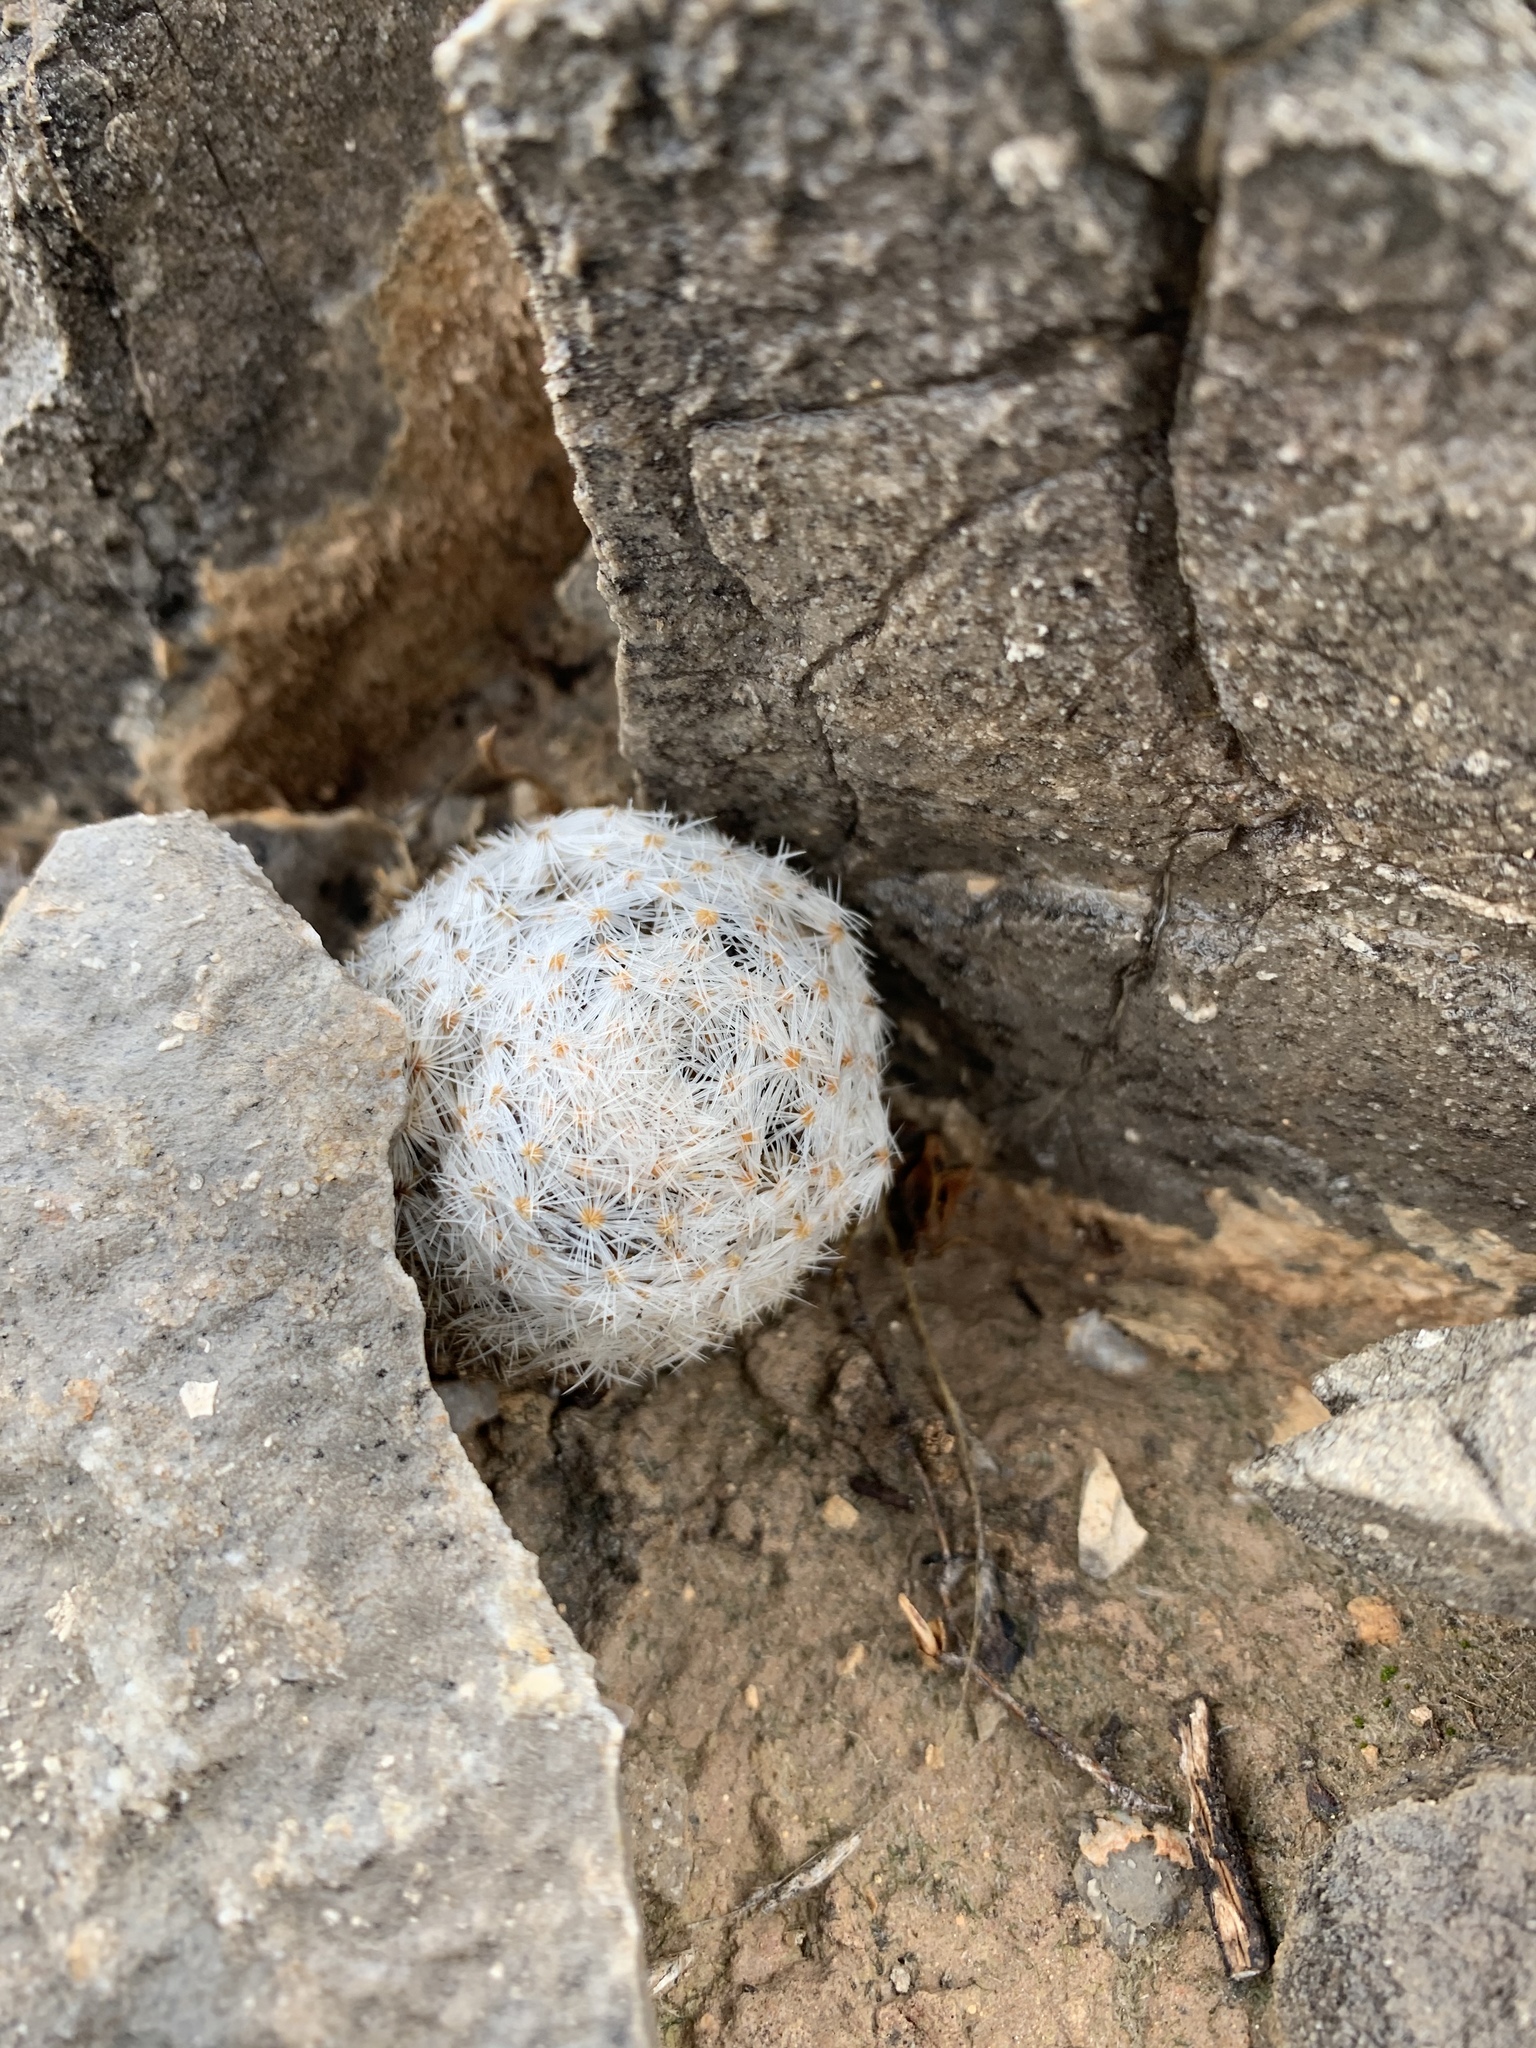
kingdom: Plantae
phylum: Tracheophyta
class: Magnoliopsida
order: Caryophyllales
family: Cactaceae
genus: Mammillaria
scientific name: Mammillaria lasiacantha
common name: Lace-spine nipple cactus
